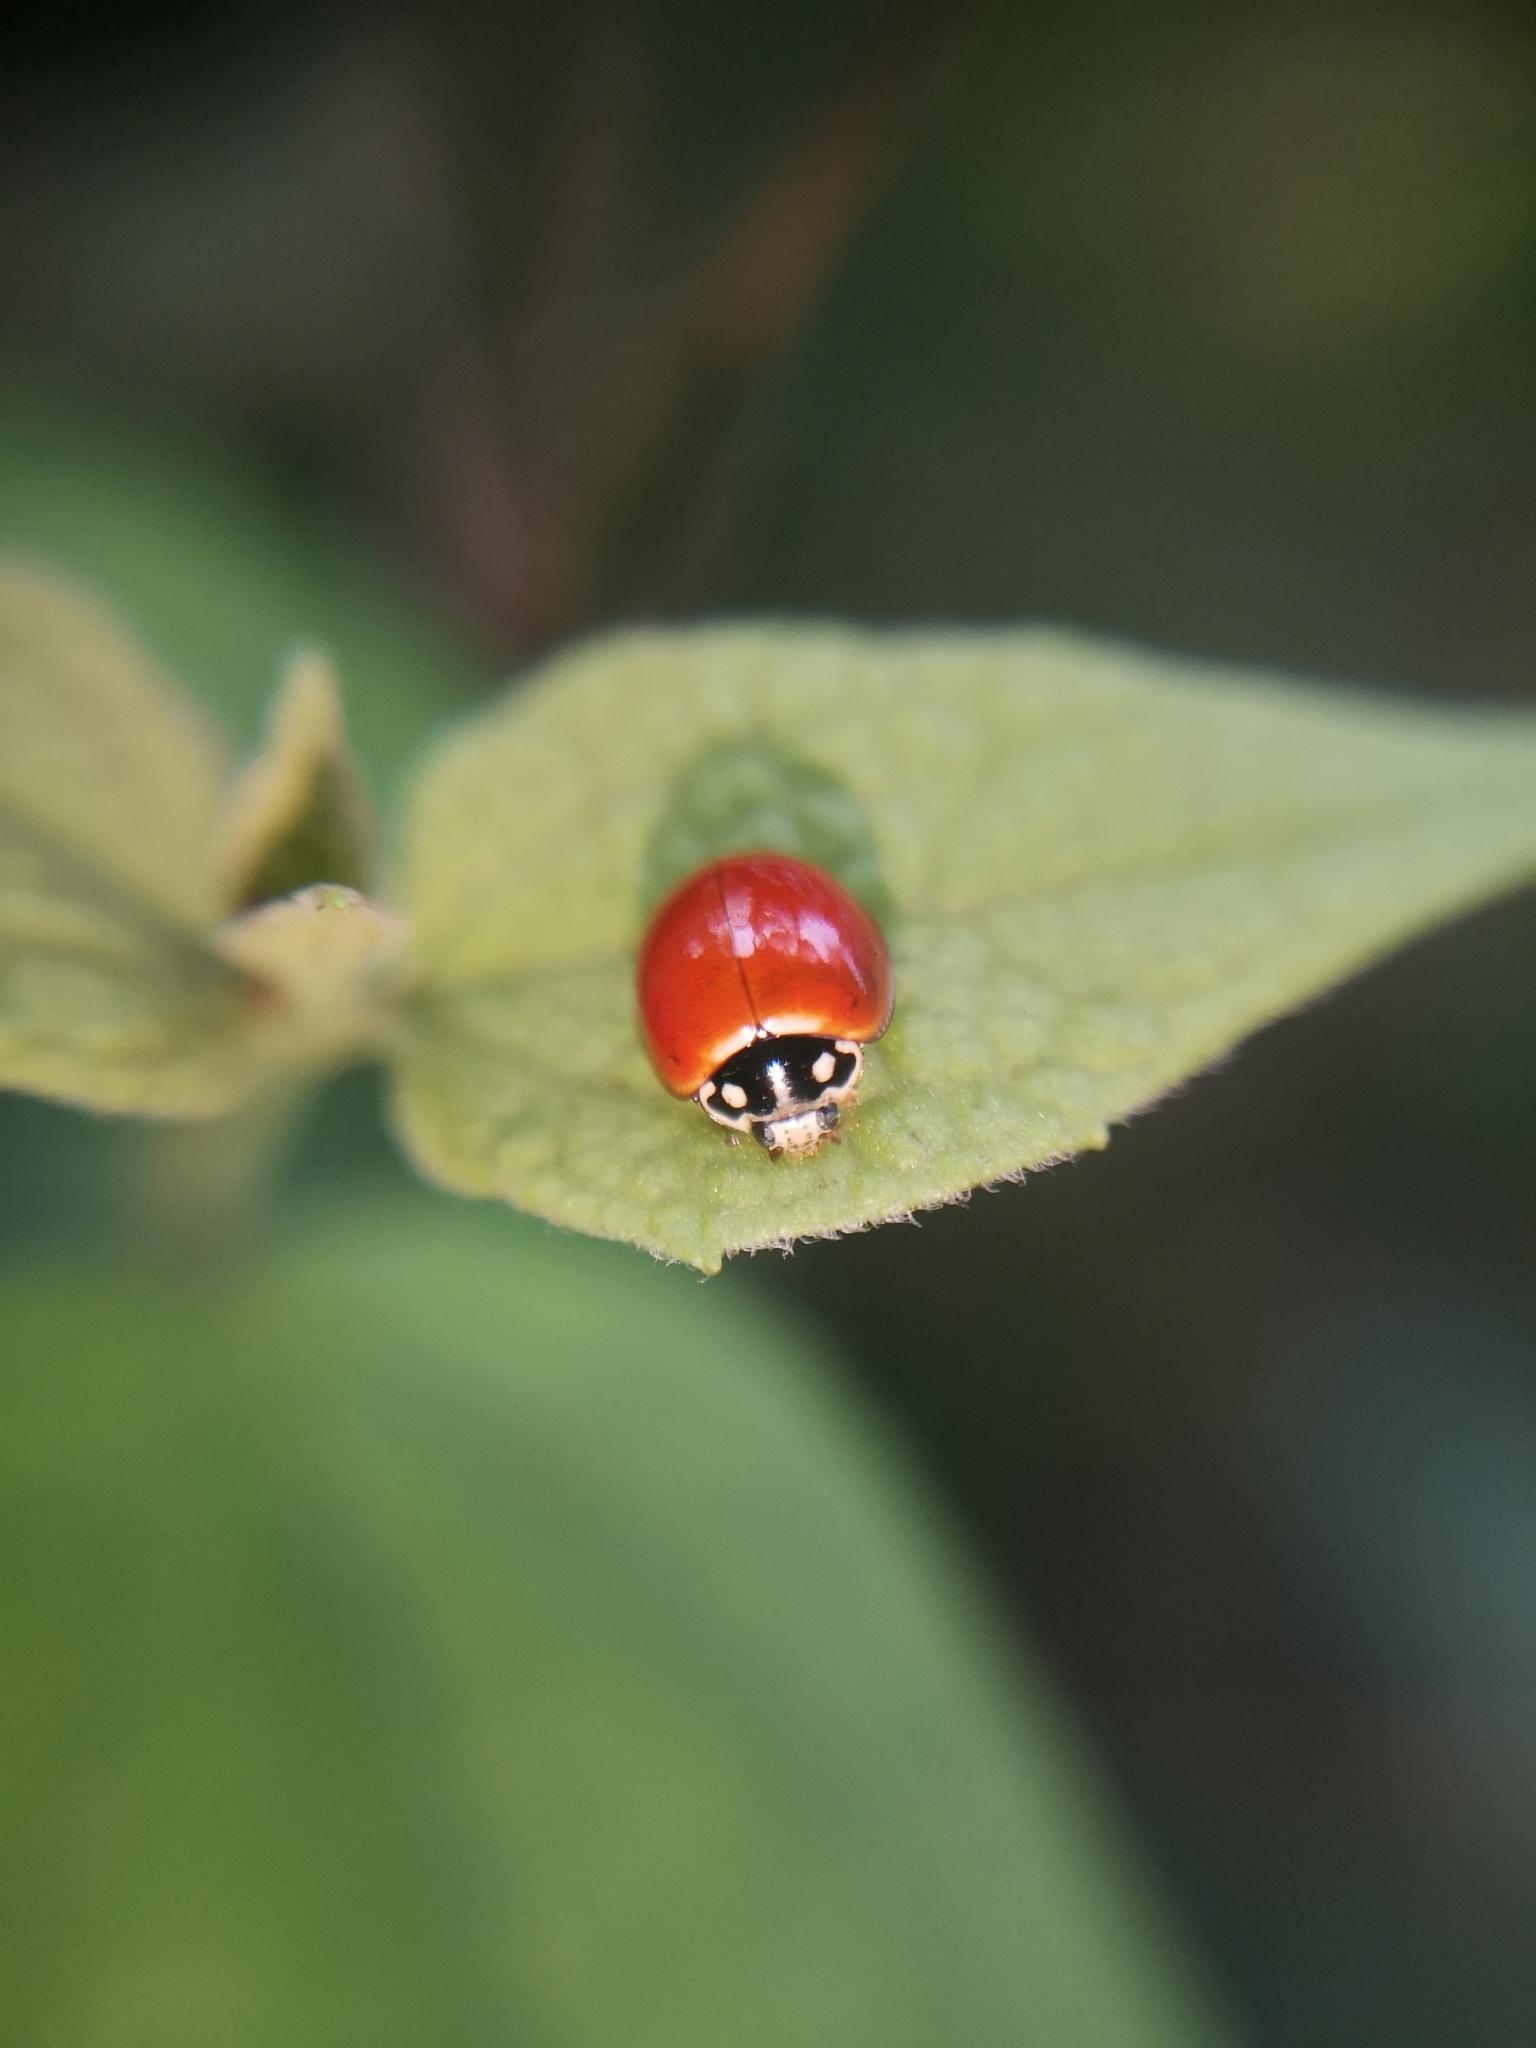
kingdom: Animalia
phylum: Arthropoda
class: Insecta
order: Coleoptera
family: Coccinellidae
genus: Cycloneda
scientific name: Cycloneda sanguinea
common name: Ladybird beetle
